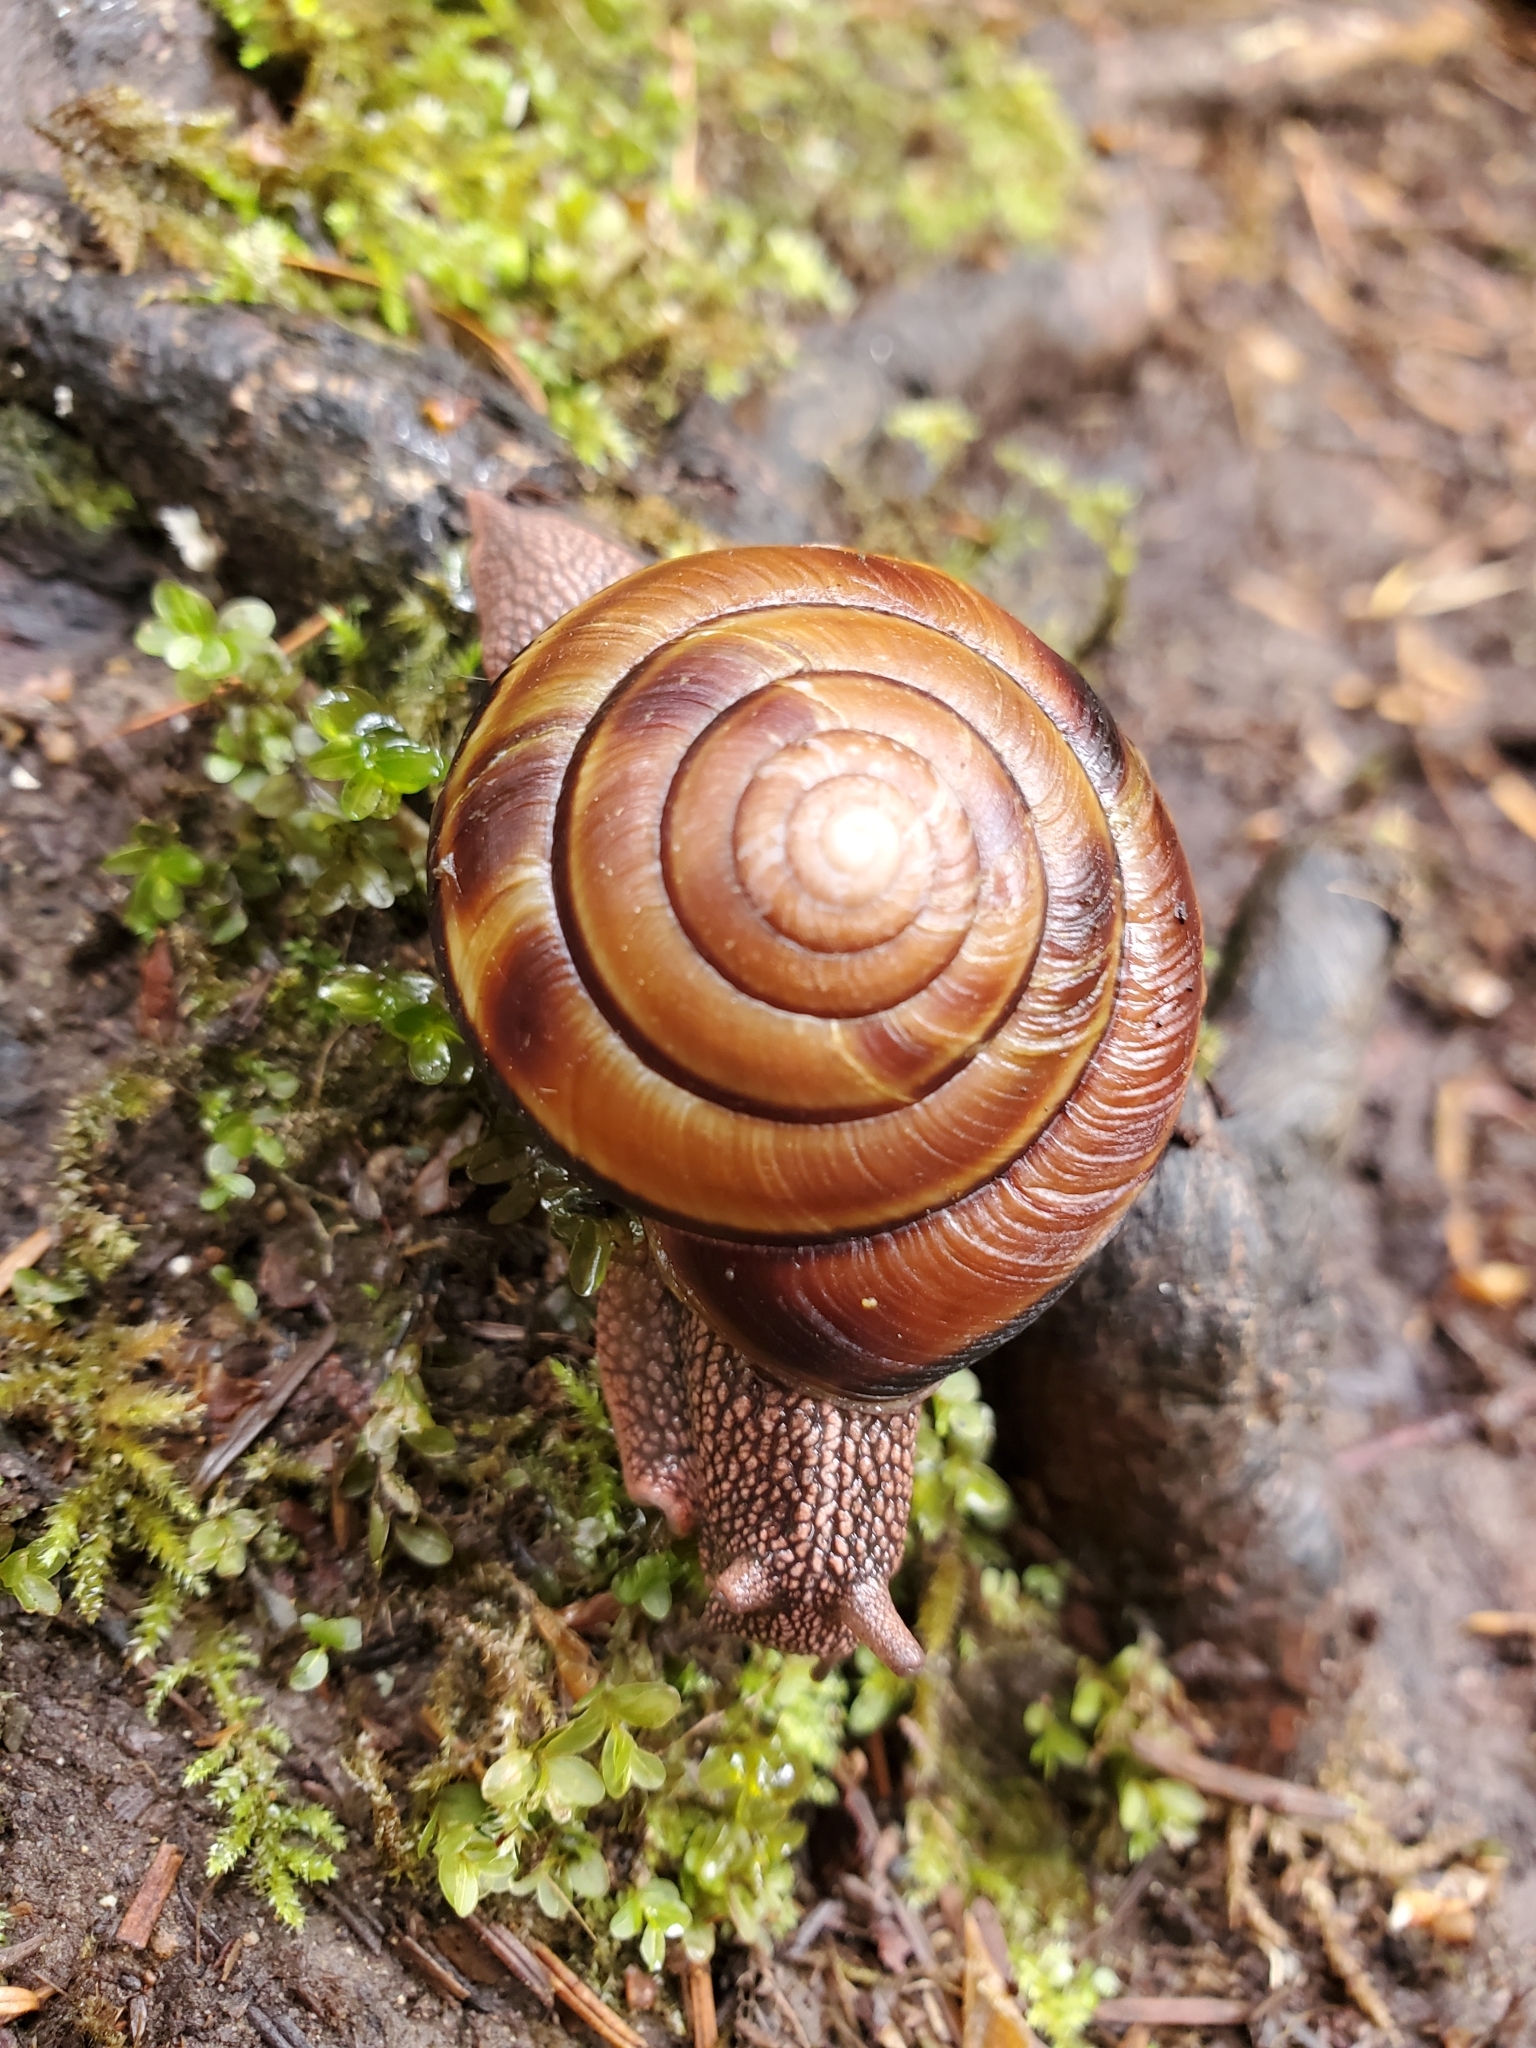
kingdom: Animalia
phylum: Mollusca
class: Gastropoda
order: Stylommatophora
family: Xanthonychidae
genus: Monadenia
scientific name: Monadenia fidelis
